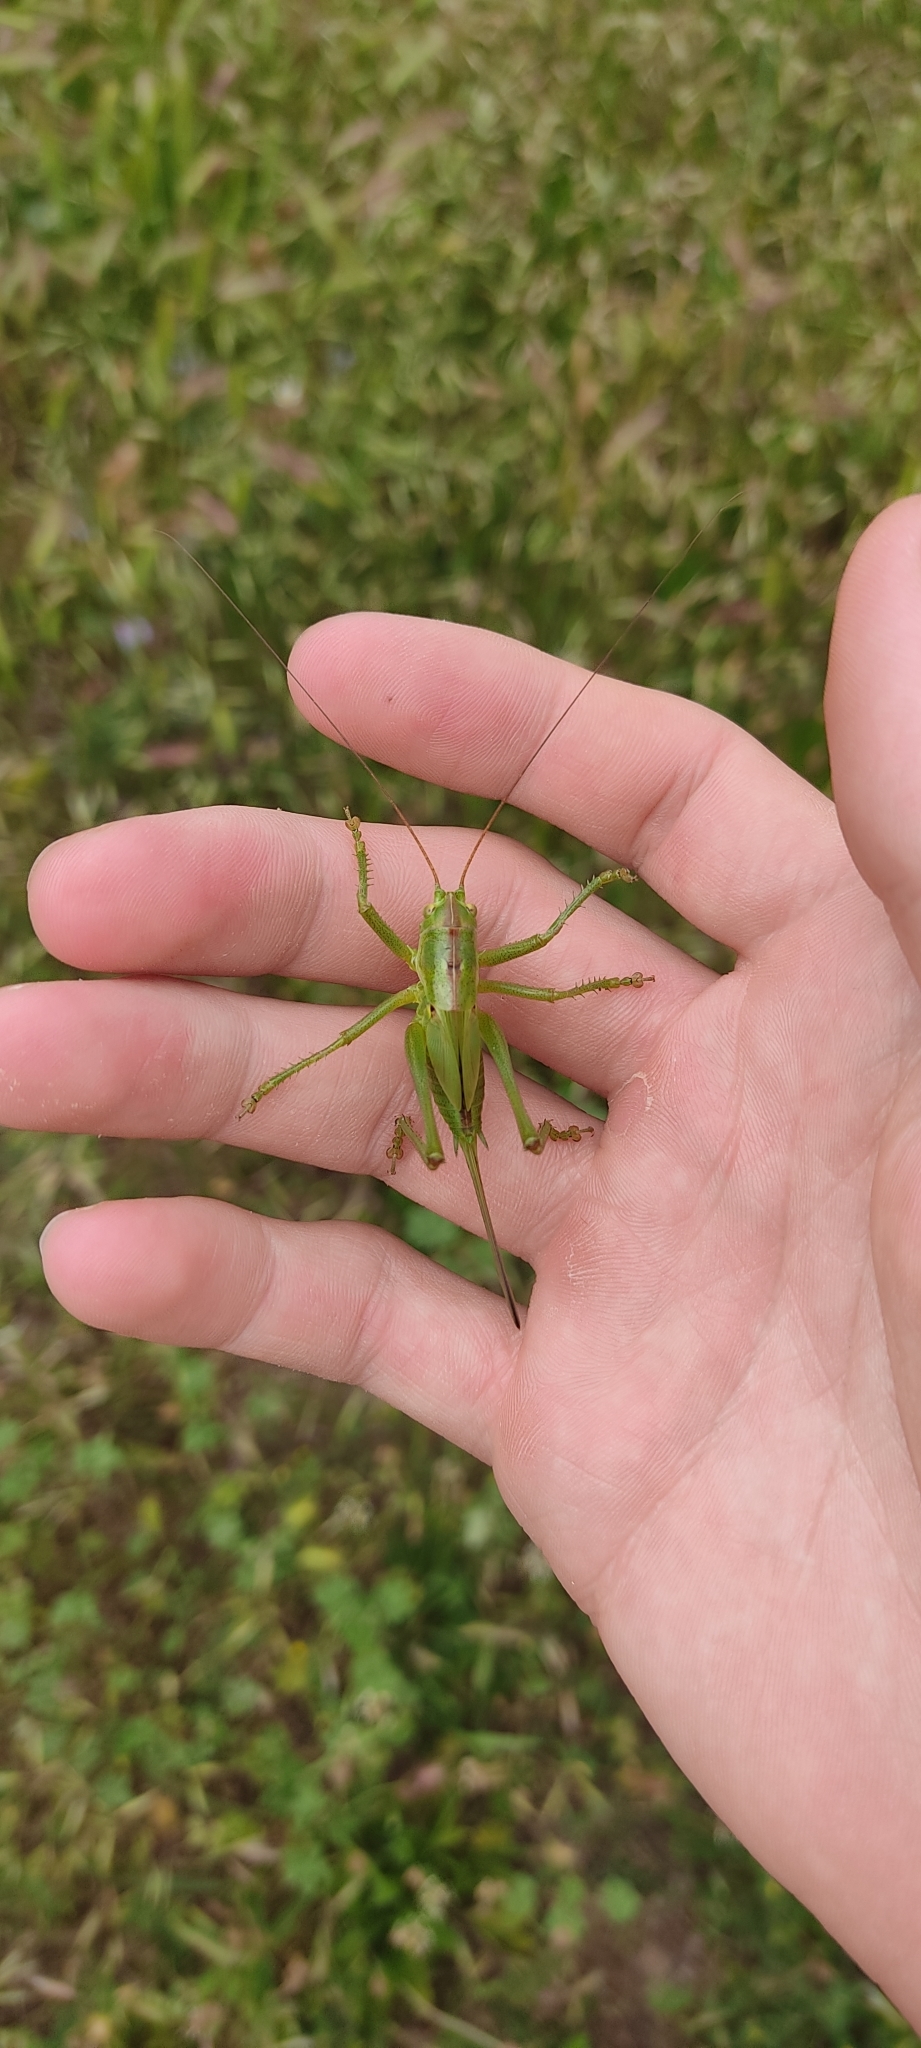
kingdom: Animalia
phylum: Arthropoda
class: Insecta
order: Orthoptera
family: Tettigoniidae
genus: Tettigonia
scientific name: Tettigonia viridissima
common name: Great green bush-cricket
